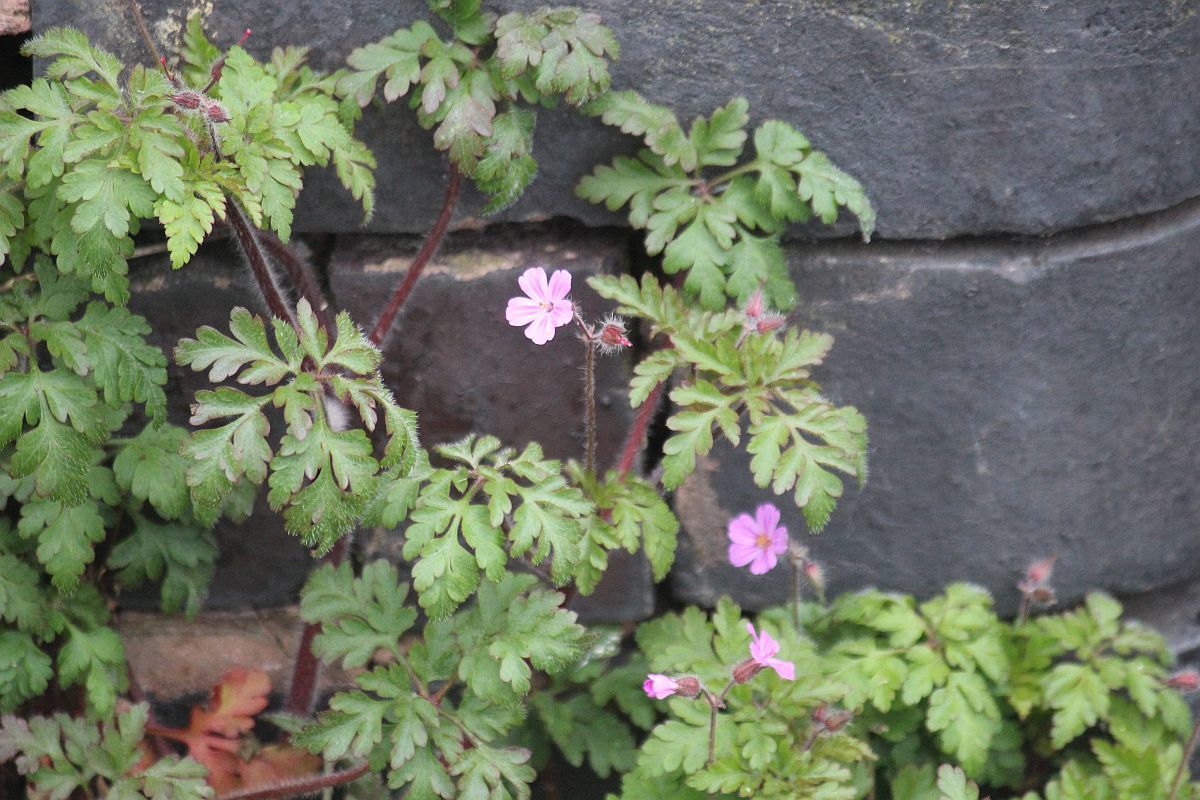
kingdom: Plantae
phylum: Tracheophyta
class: Magnoliopsida
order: Geraniales
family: Geraniaceae
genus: Geranium
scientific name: Geranium robertianum
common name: Herb-robert
